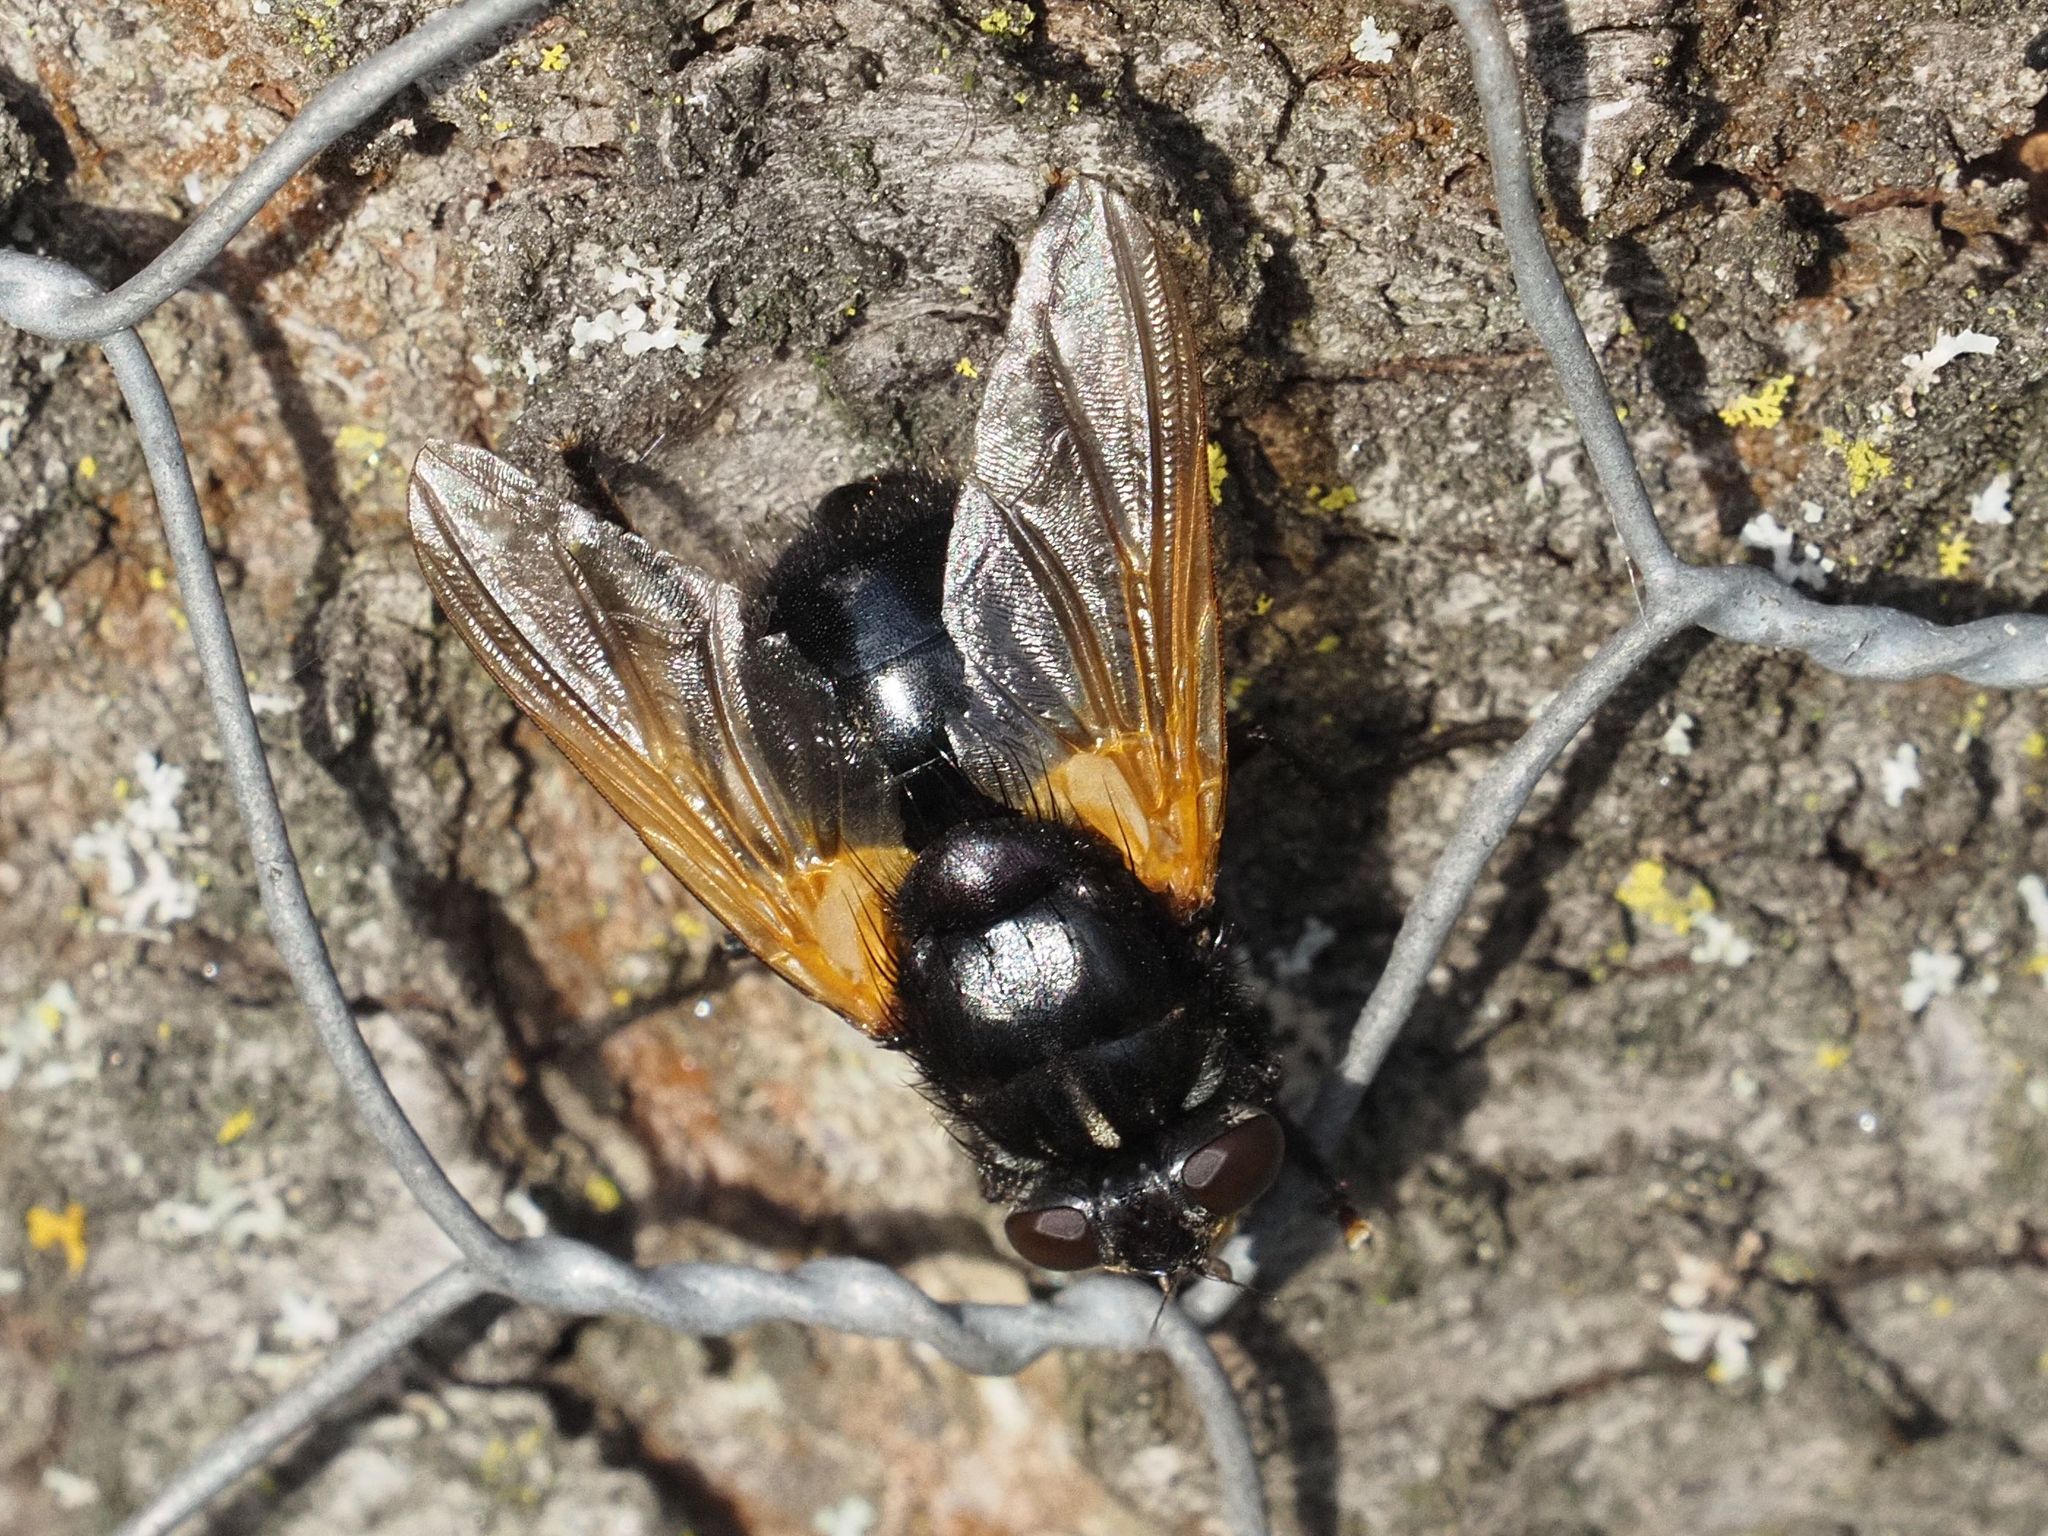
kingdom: Animalia
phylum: Arthropoda
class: Insecta
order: Diptera
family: Muscidae
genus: Mesembrina
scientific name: Mesembrina meridiana
